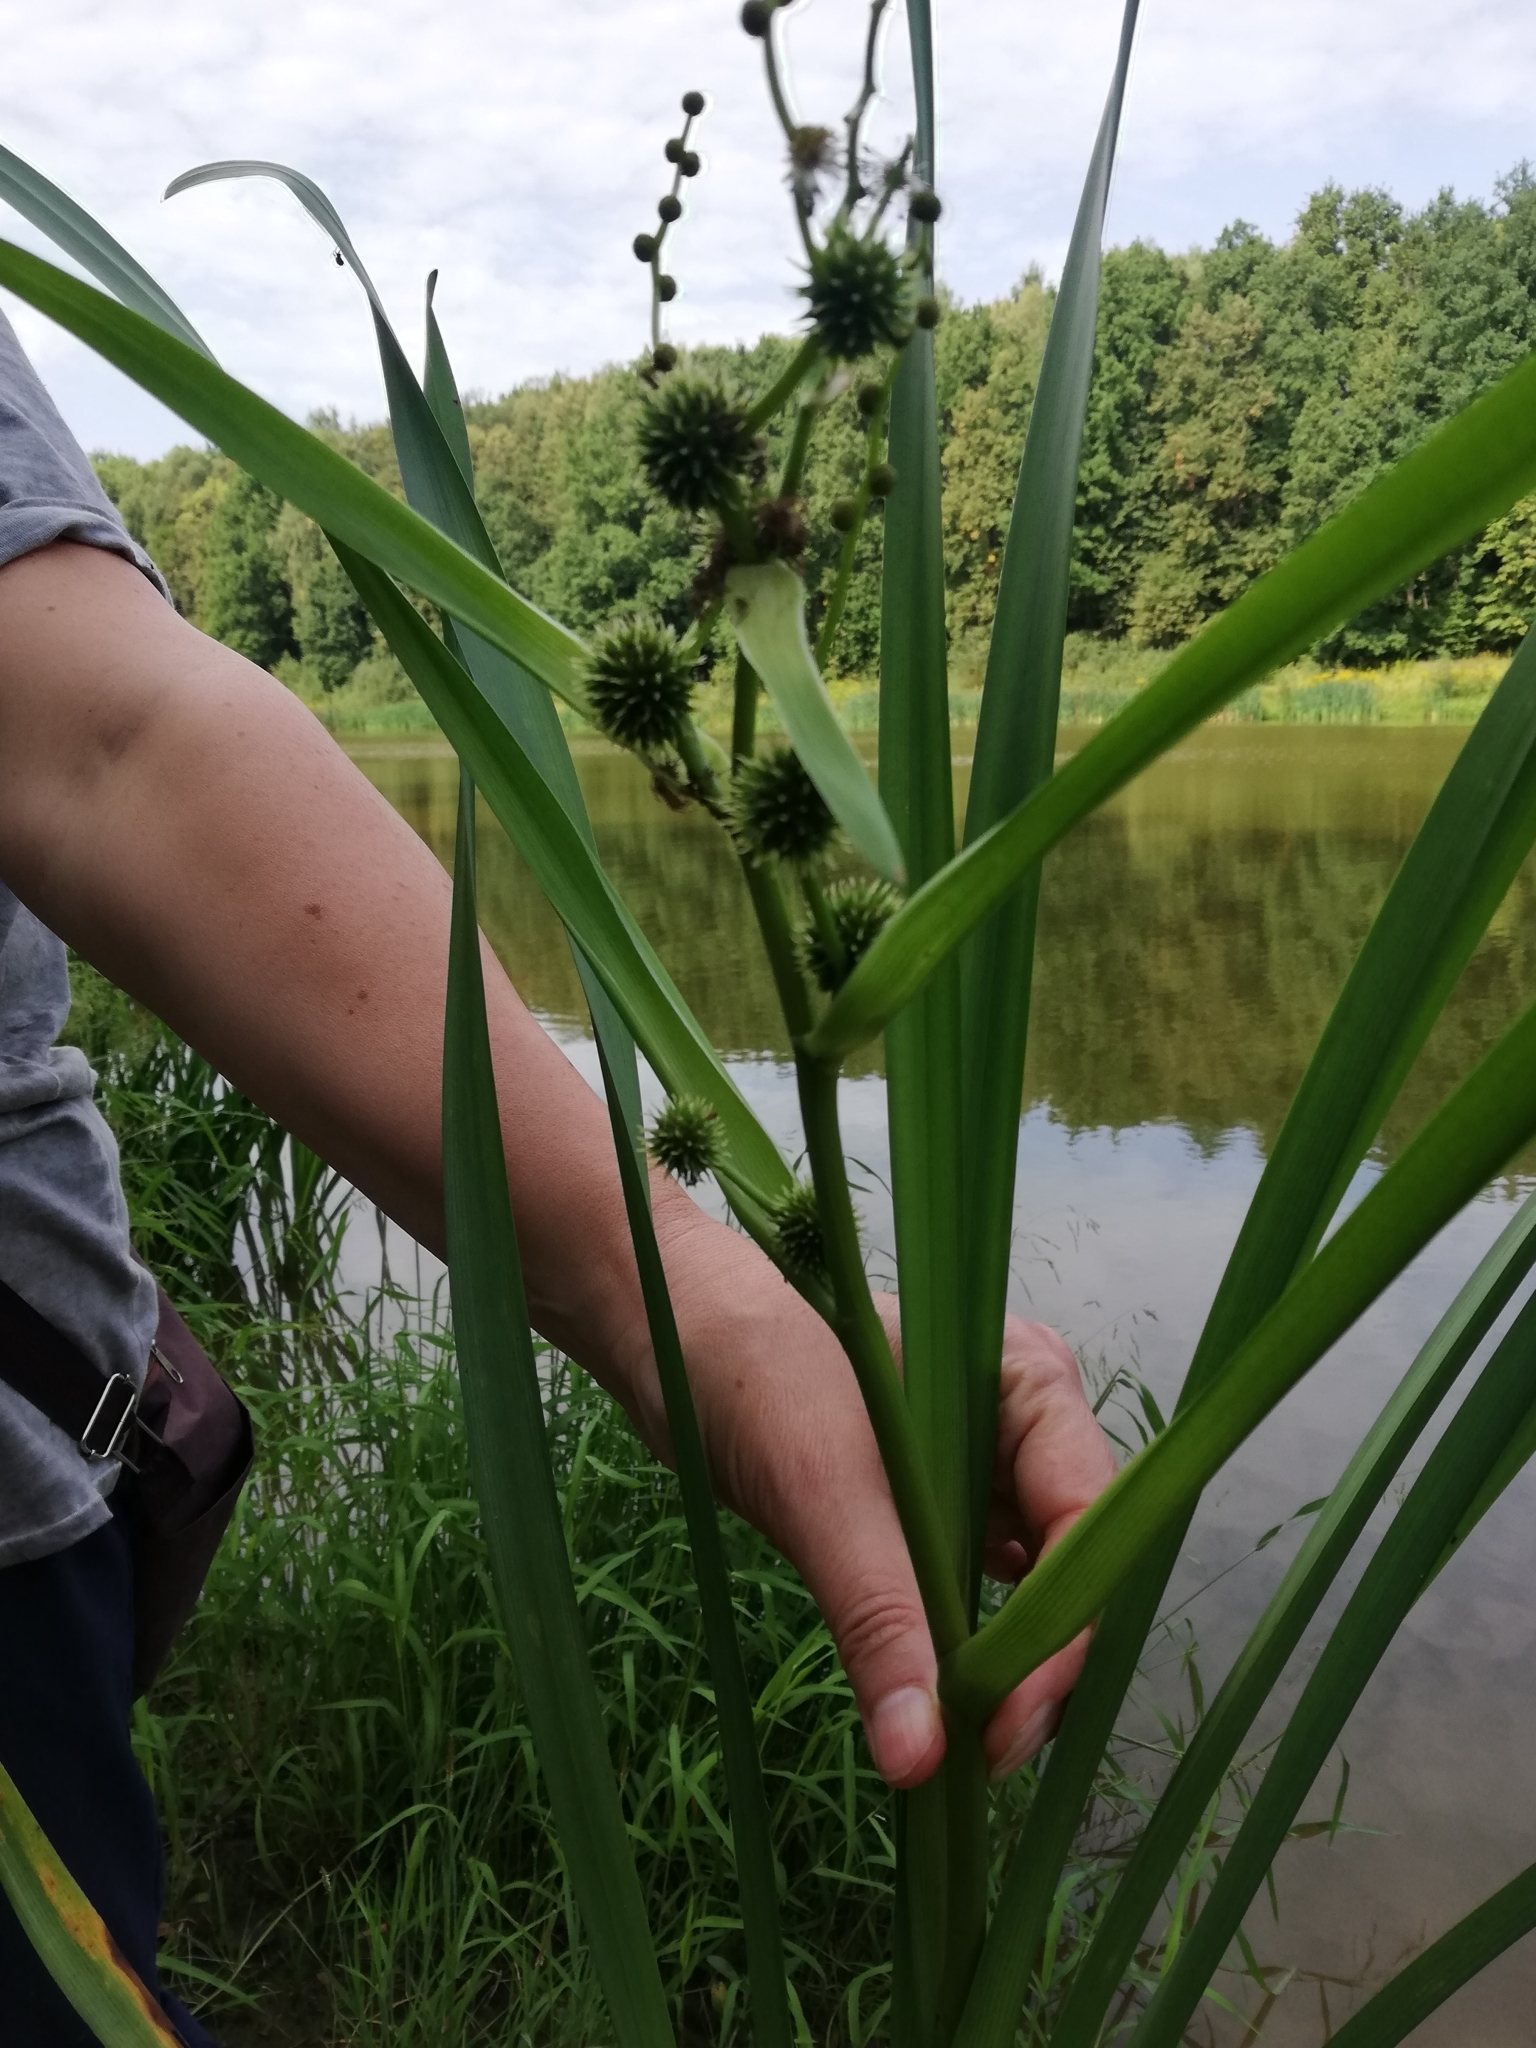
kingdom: Plantae
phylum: Tracheophyta
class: Liliopsida
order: Poales
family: Typhaceae
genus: Sparganium
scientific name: Sparganium erectum
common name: Branched bur-reed
